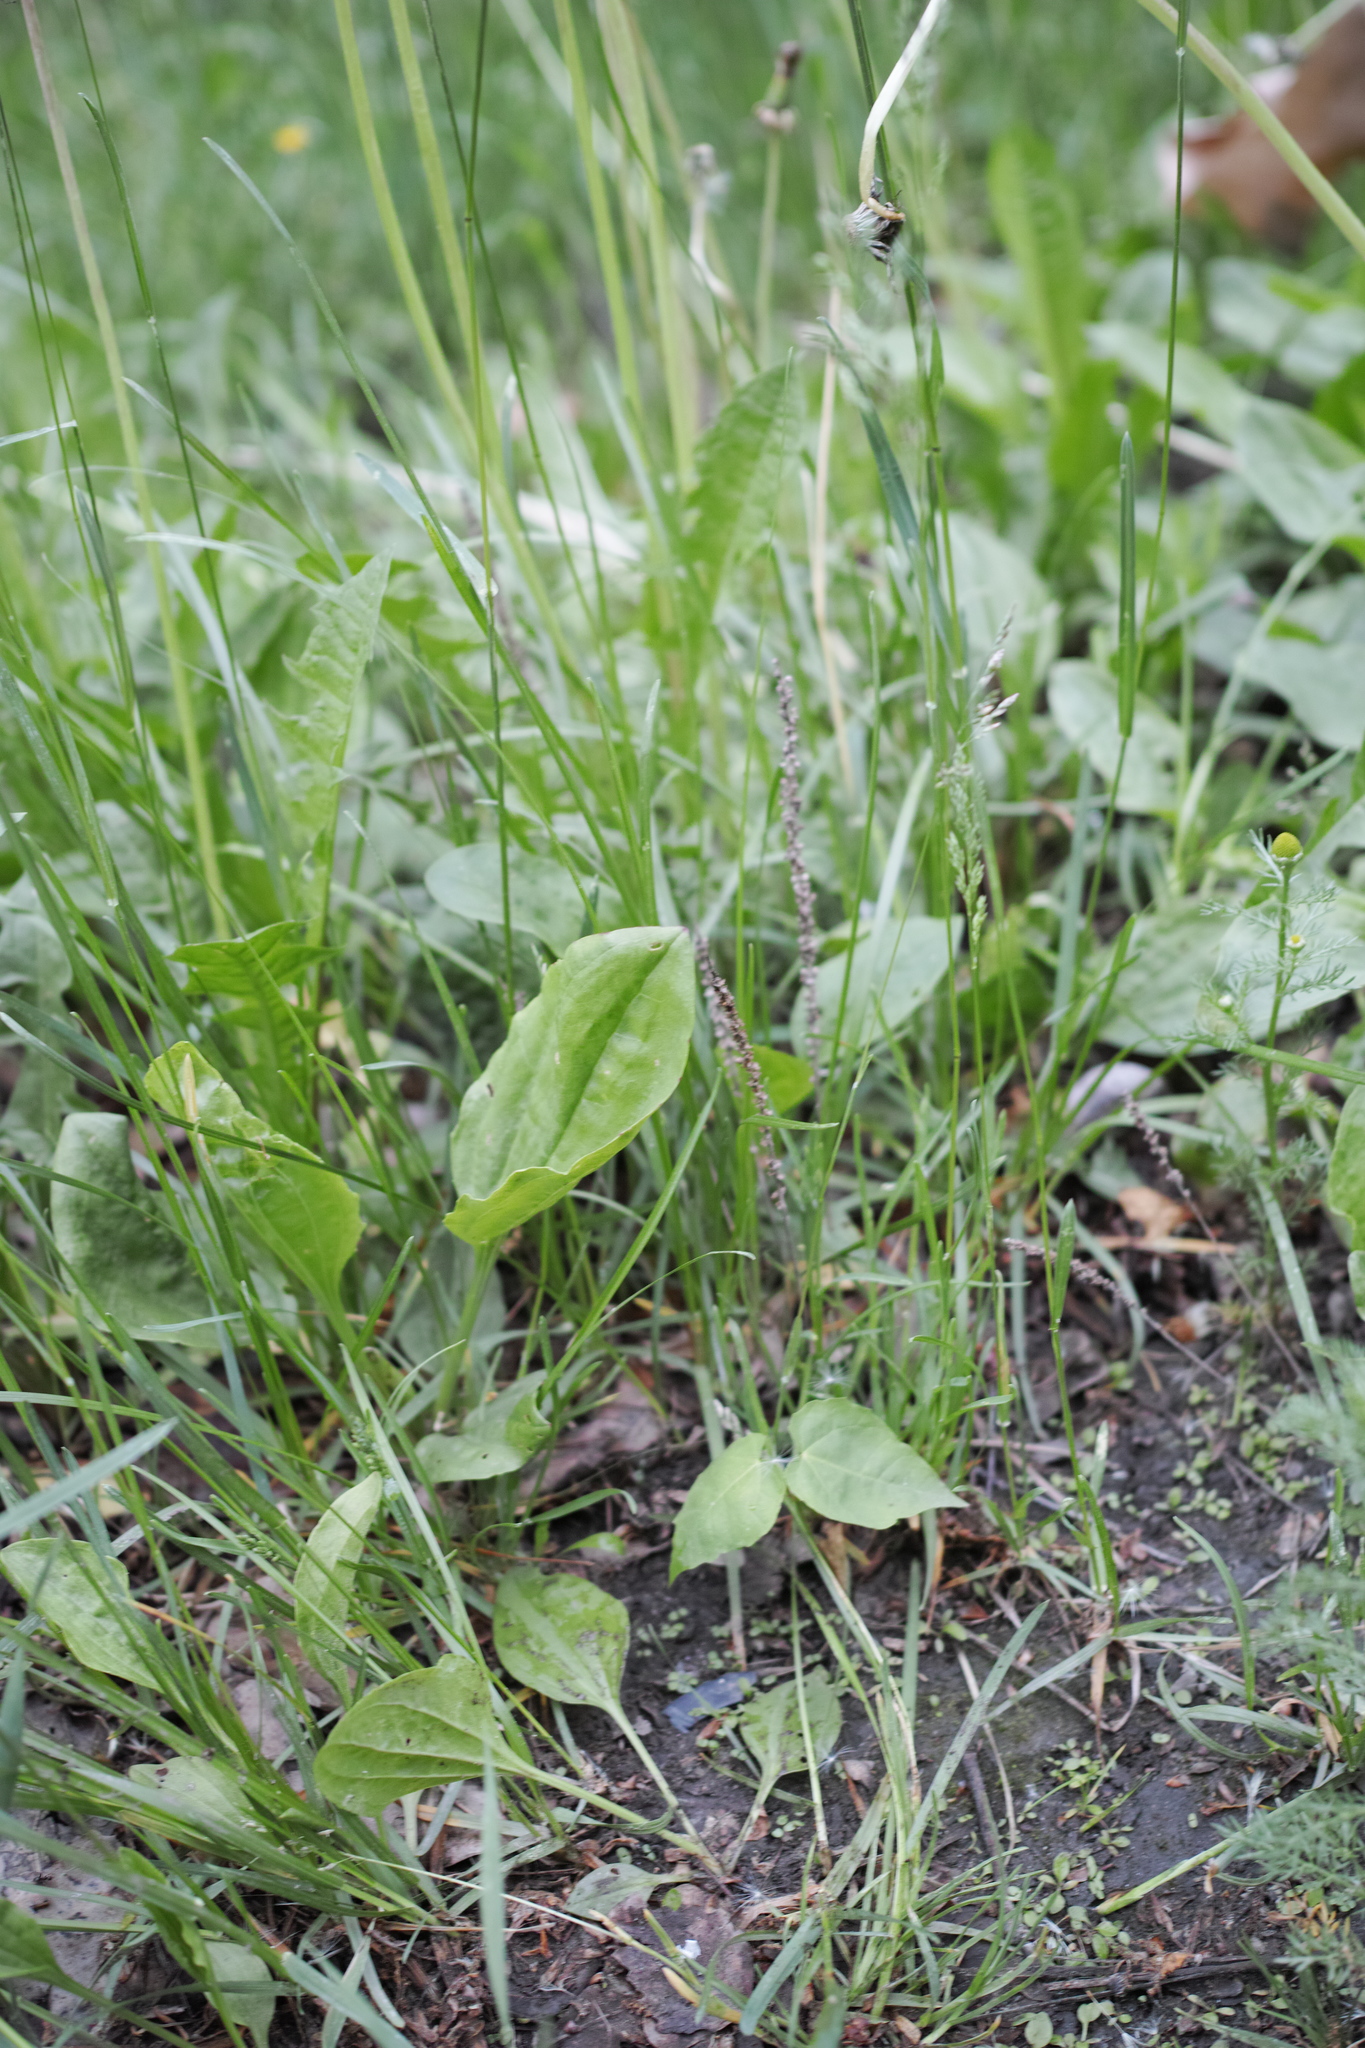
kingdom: Plantae
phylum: Tracheophyta
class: Magnoliopsida
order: Lamiales
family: Plantaginaceae
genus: Plantago
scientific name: Plantago major
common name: Common plantain
